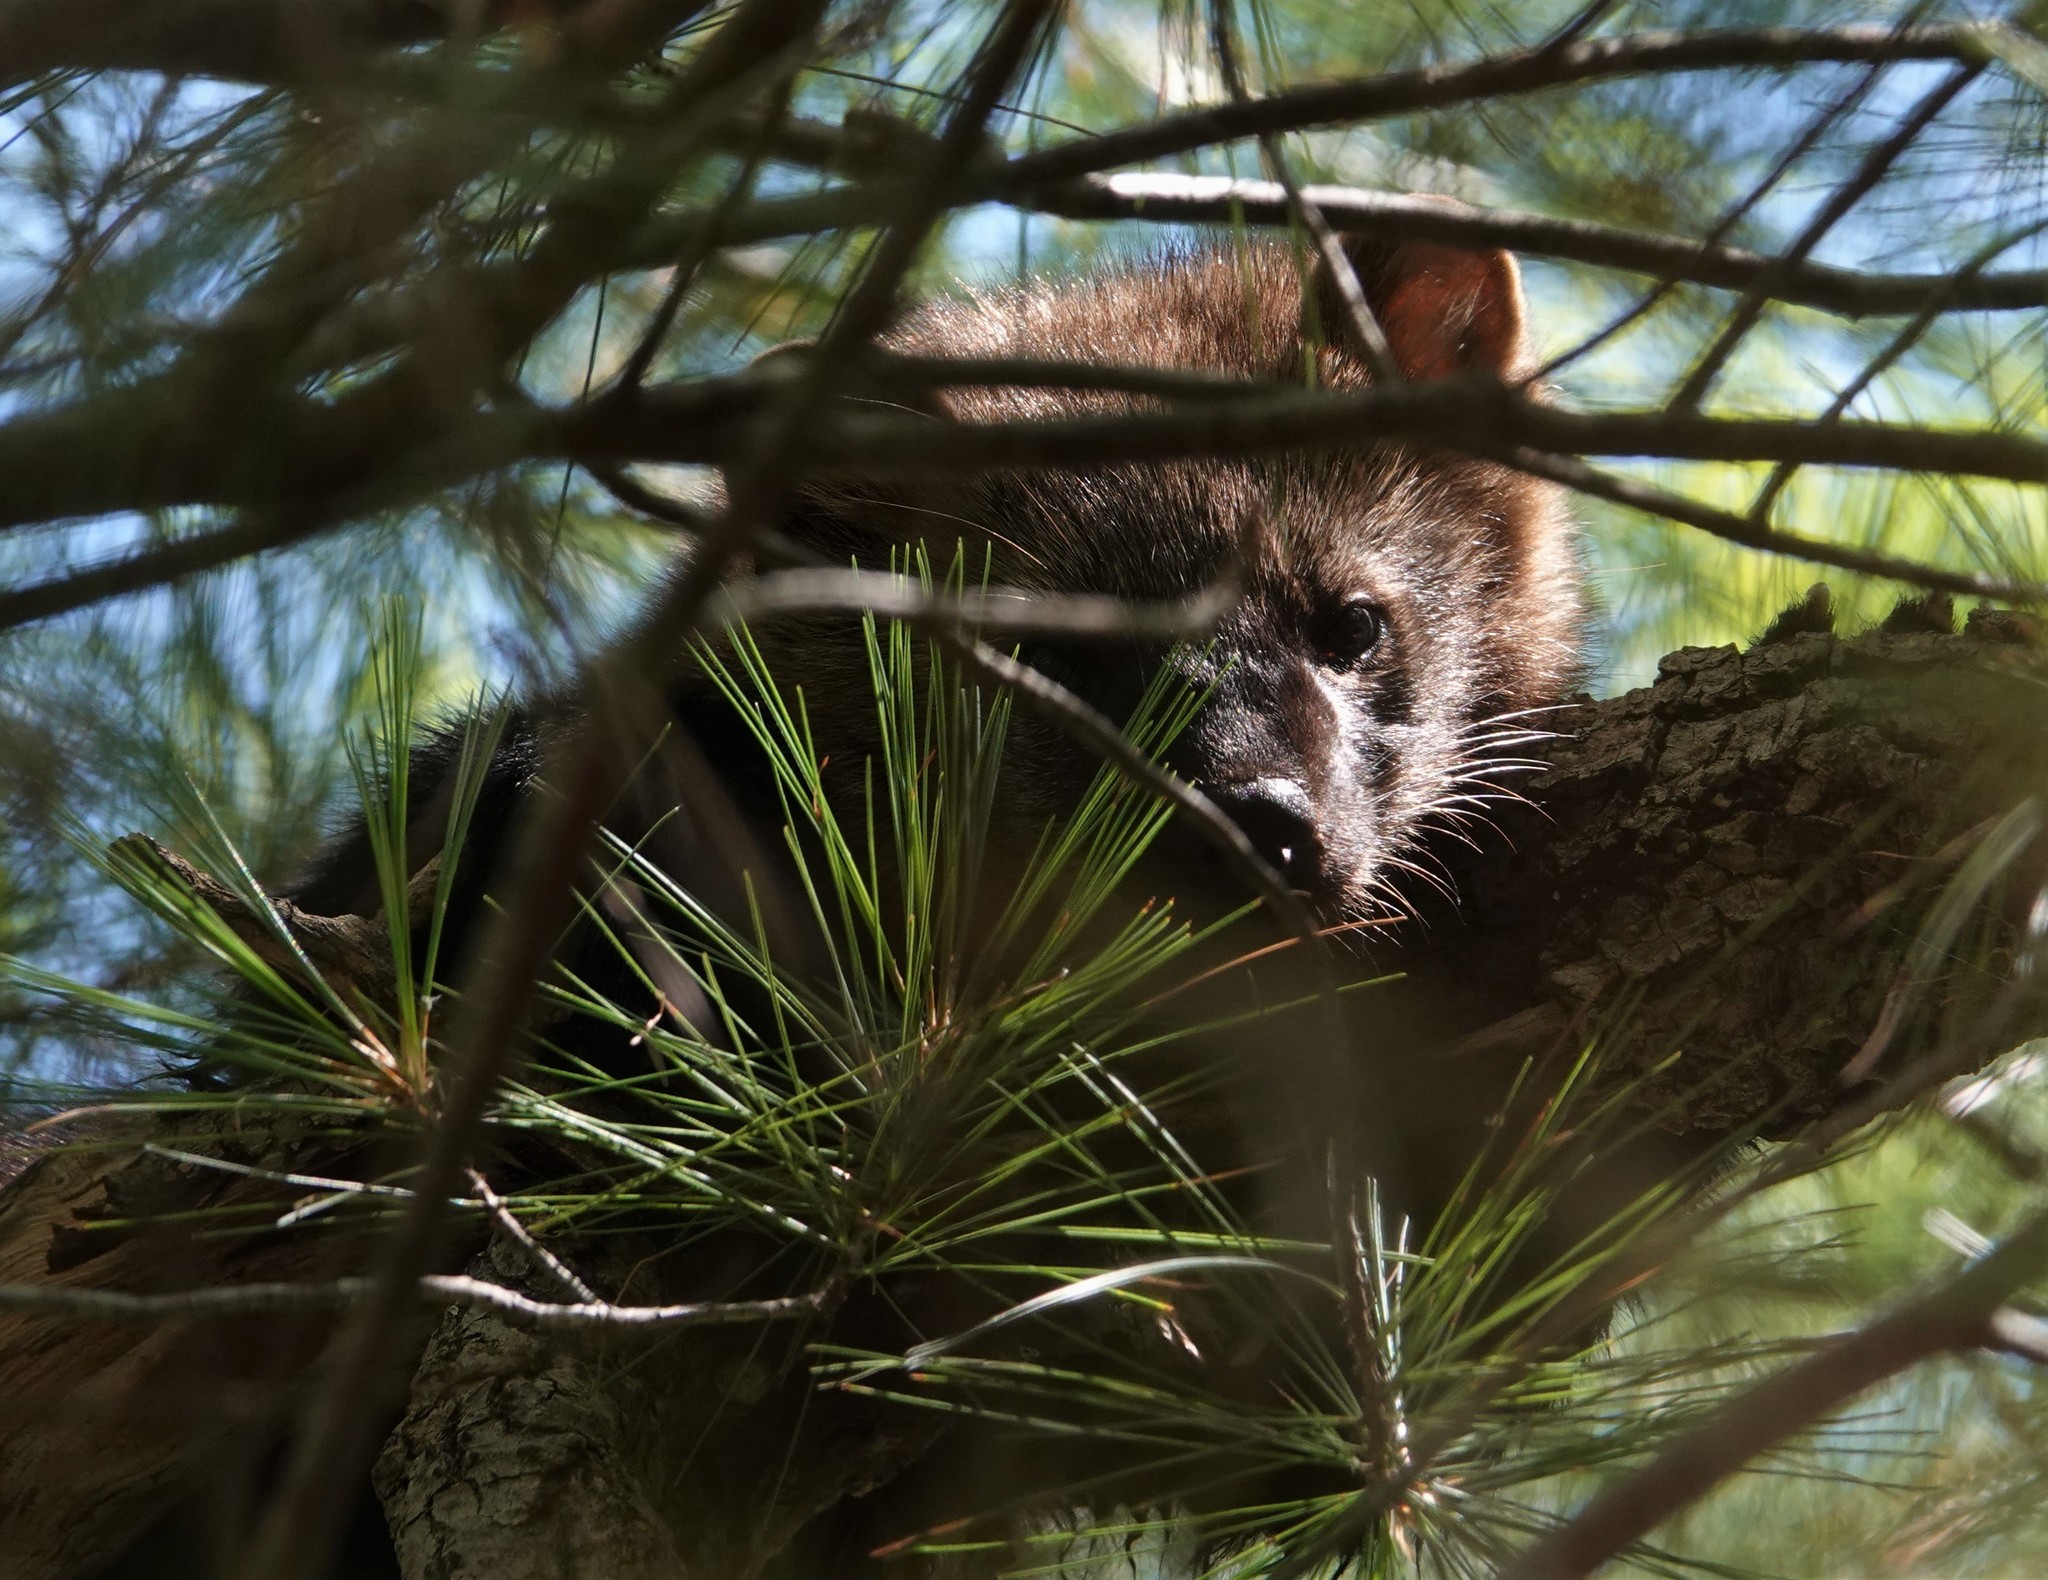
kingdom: Animalia
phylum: Chordata
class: Mammalia
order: Carnivora
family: Mustelidae
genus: Pekania
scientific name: Pekania pennanti
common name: Fisher
